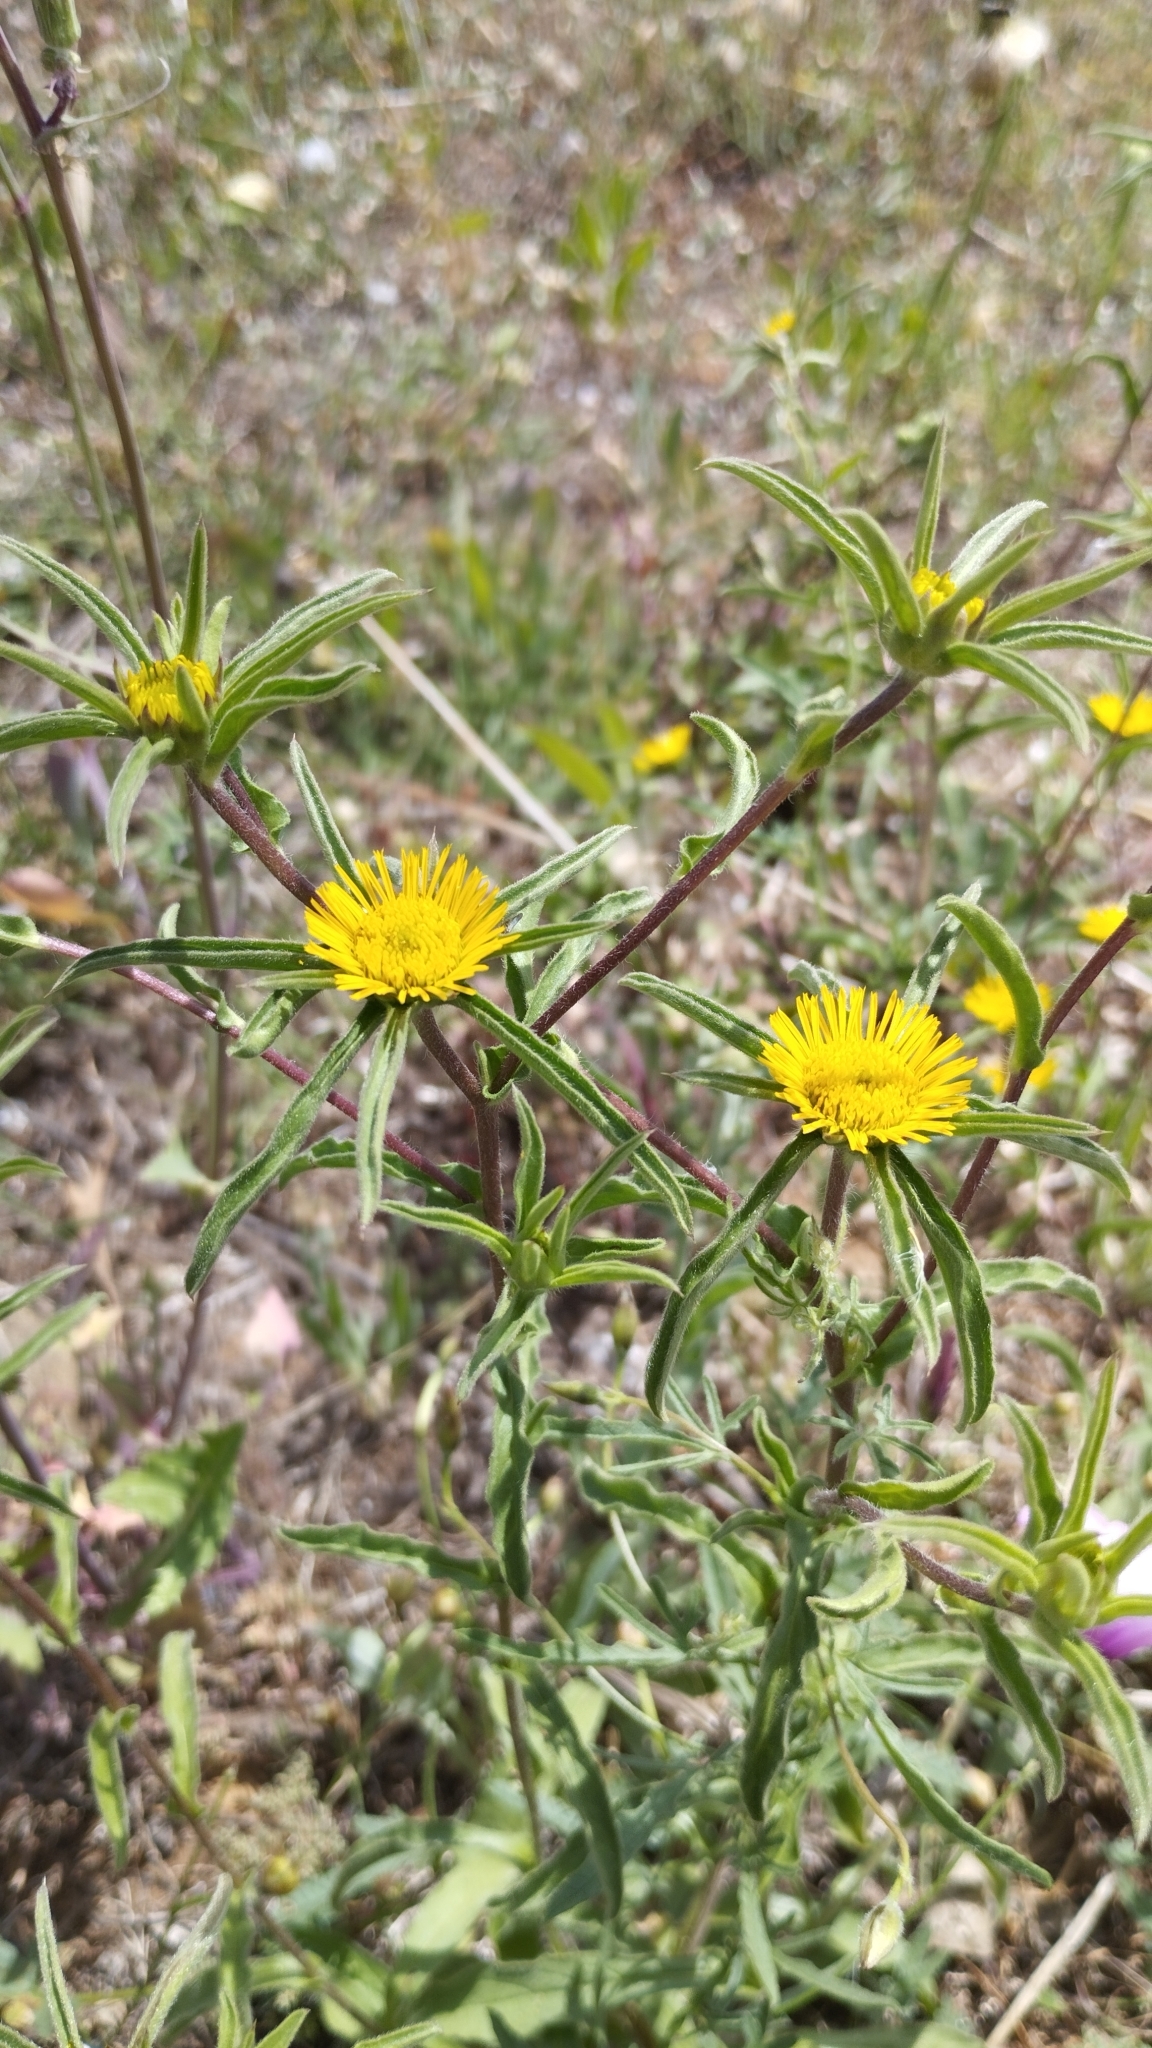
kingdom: Plantae
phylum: Tracheophyta
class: Magnoliopsida
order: Asterales
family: Asteraceae
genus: Pallenis
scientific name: Pallenis spinosa
